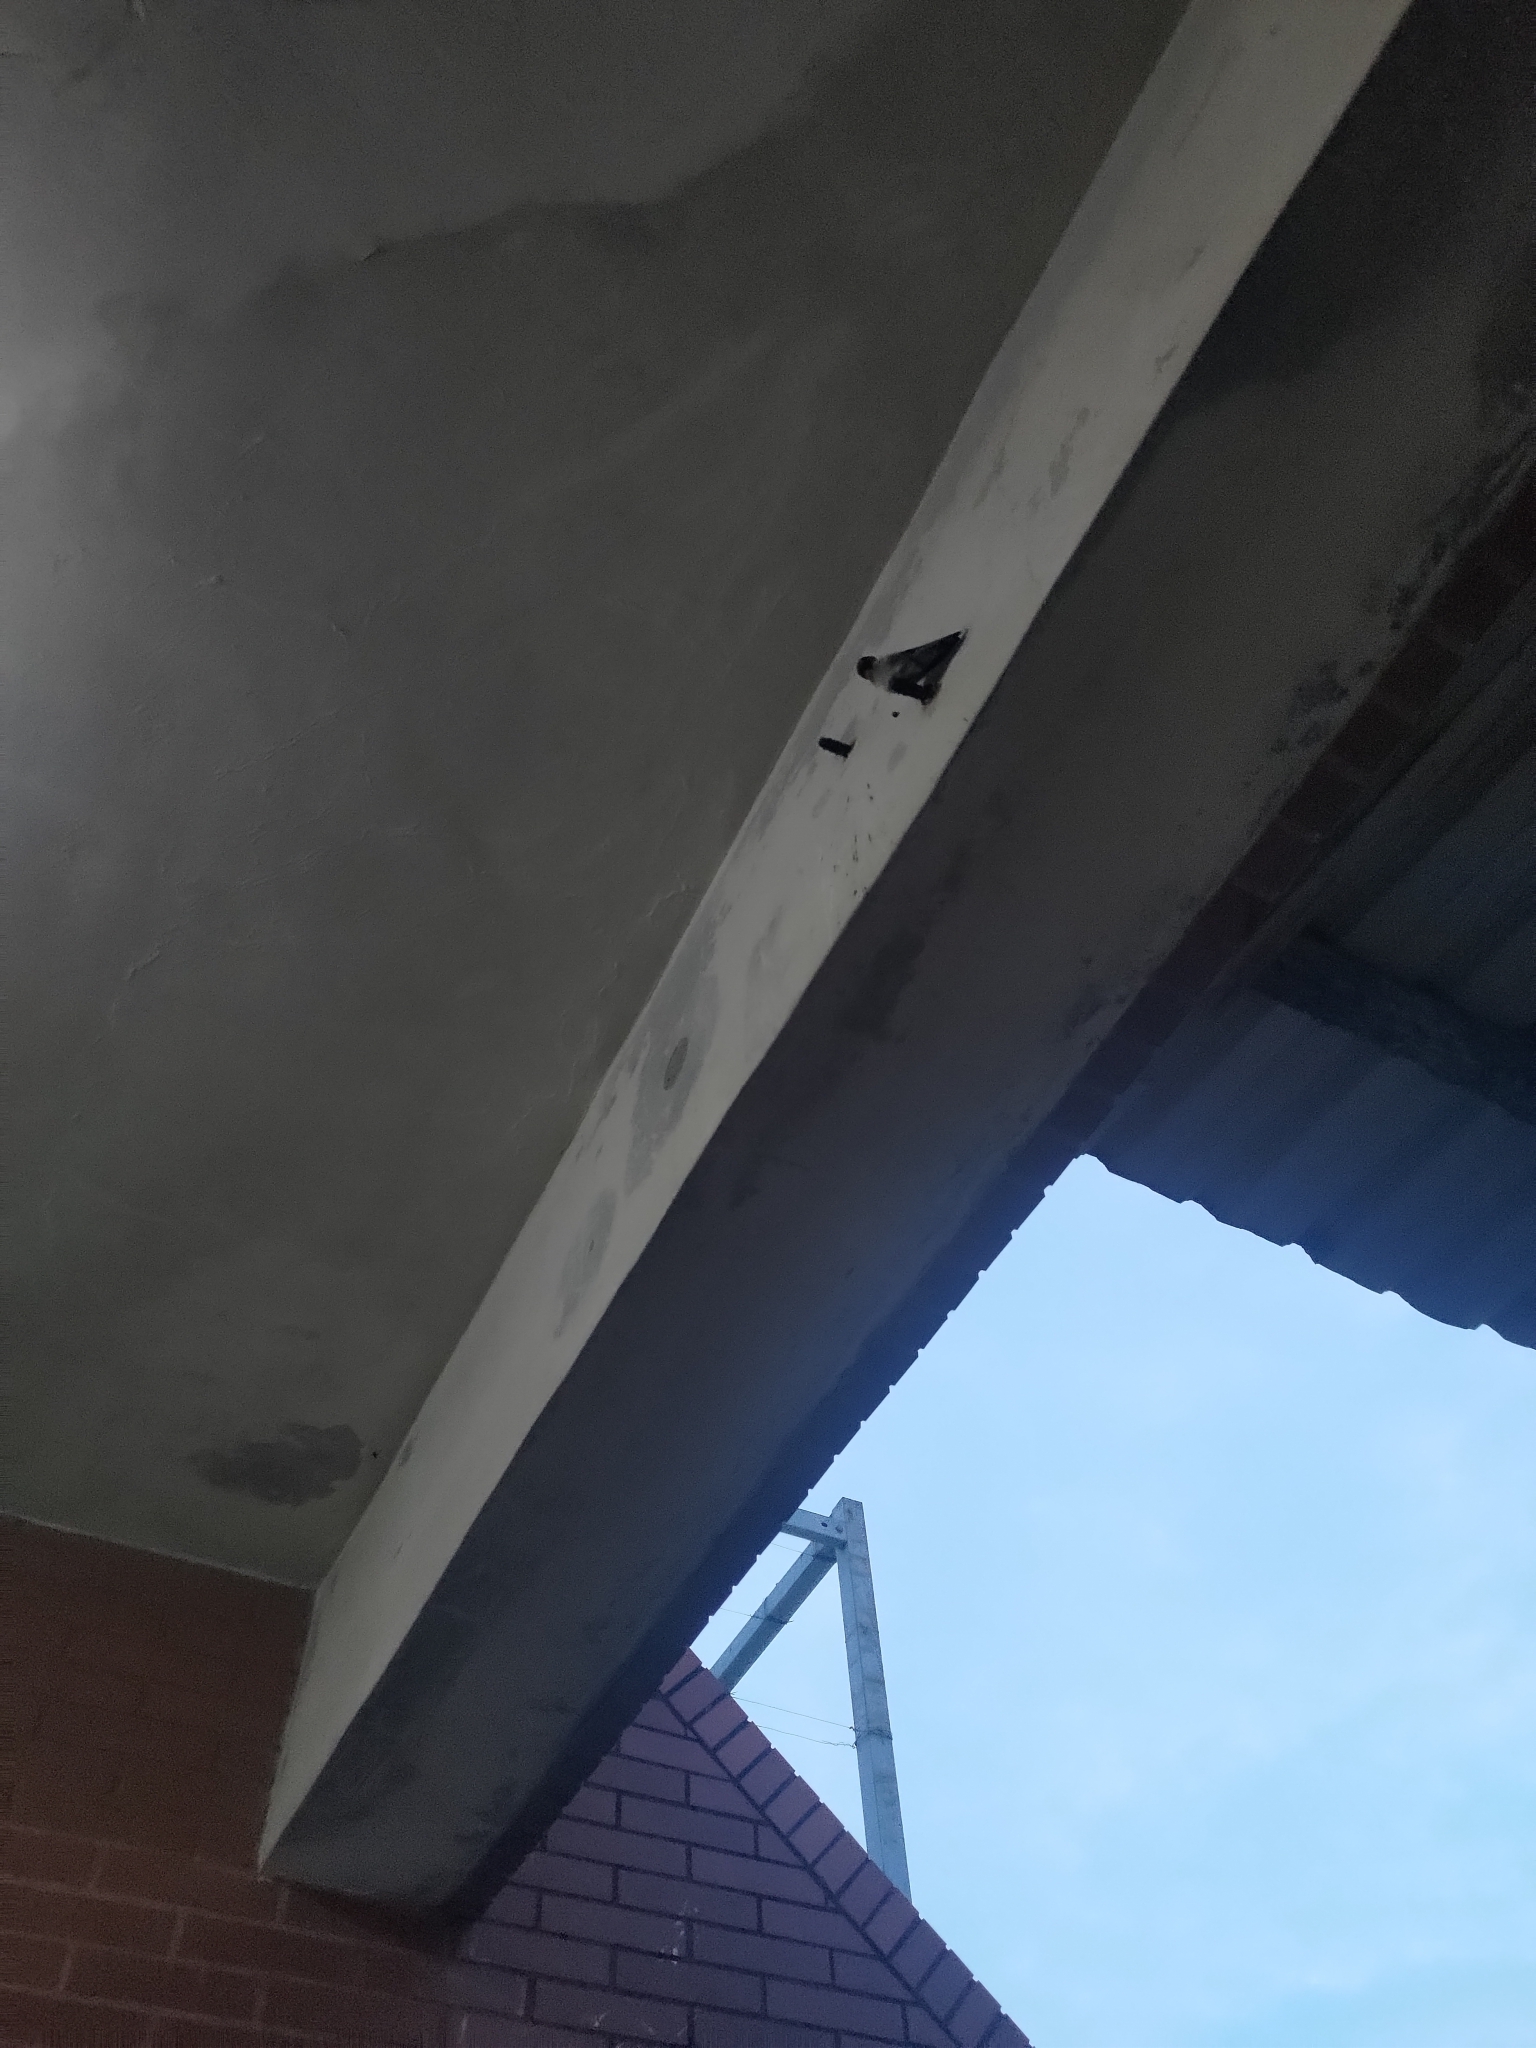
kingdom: Animalia
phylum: Chordata
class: Aves
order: Passeriformes
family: Hirundinidae
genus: Hirundo
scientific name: Hirundo rustica
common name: Barn swallow
